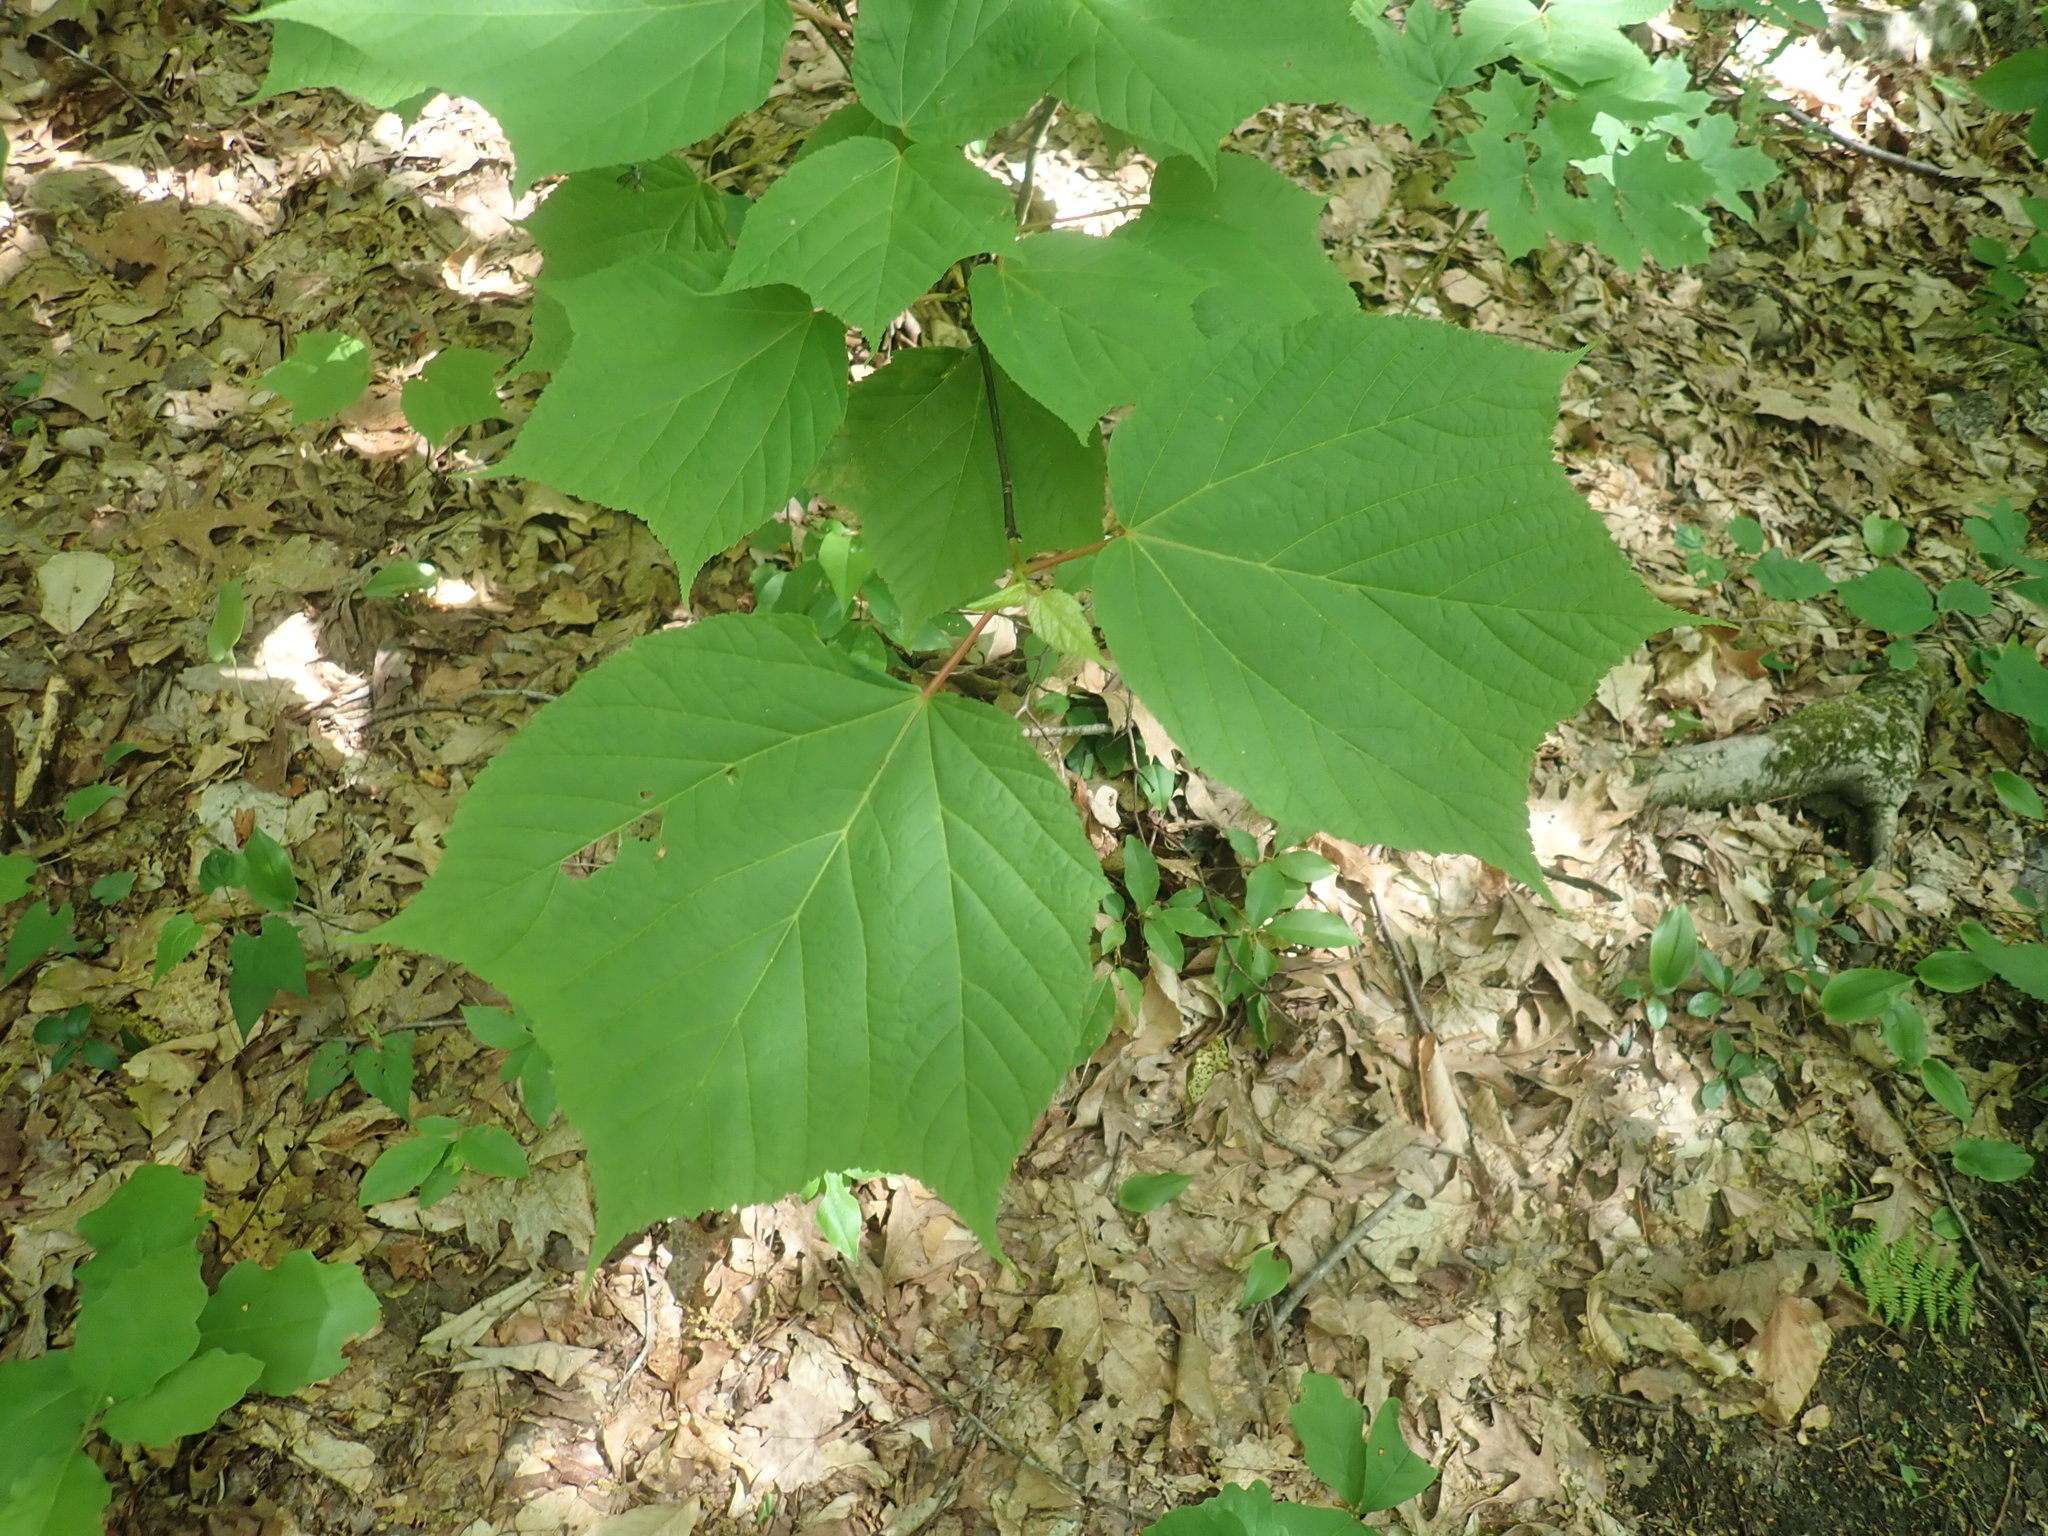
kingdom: Plantae
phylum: Tracheophyta
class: Magnoliopsida
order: Sapindales
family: Sapindaceae
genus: Acer
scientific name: Acer pensylvanicum
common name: Moosewood
